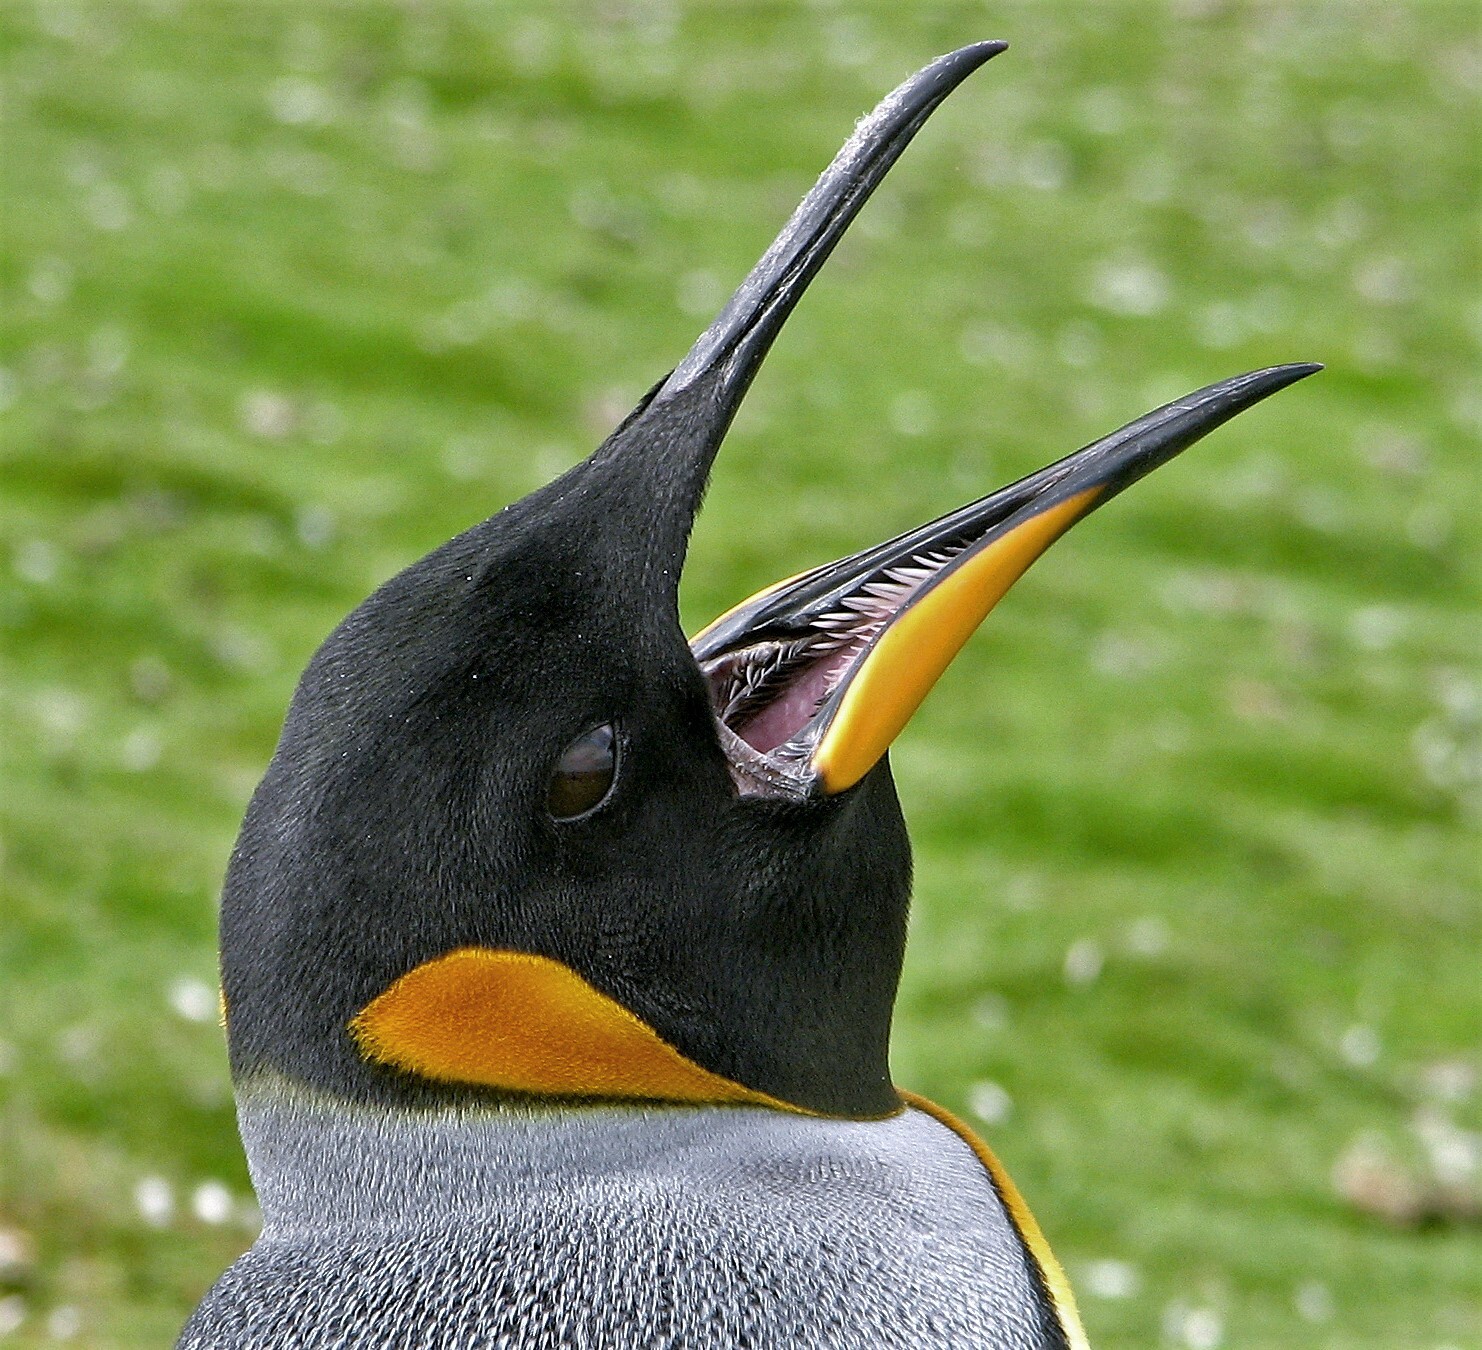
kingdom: Animalia
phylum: Chordata
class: Aves
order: Sphenisciformes
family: Spheniscidae
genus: Aptenodytes
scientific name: Aptenodytes patagonicus
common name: King penguin
